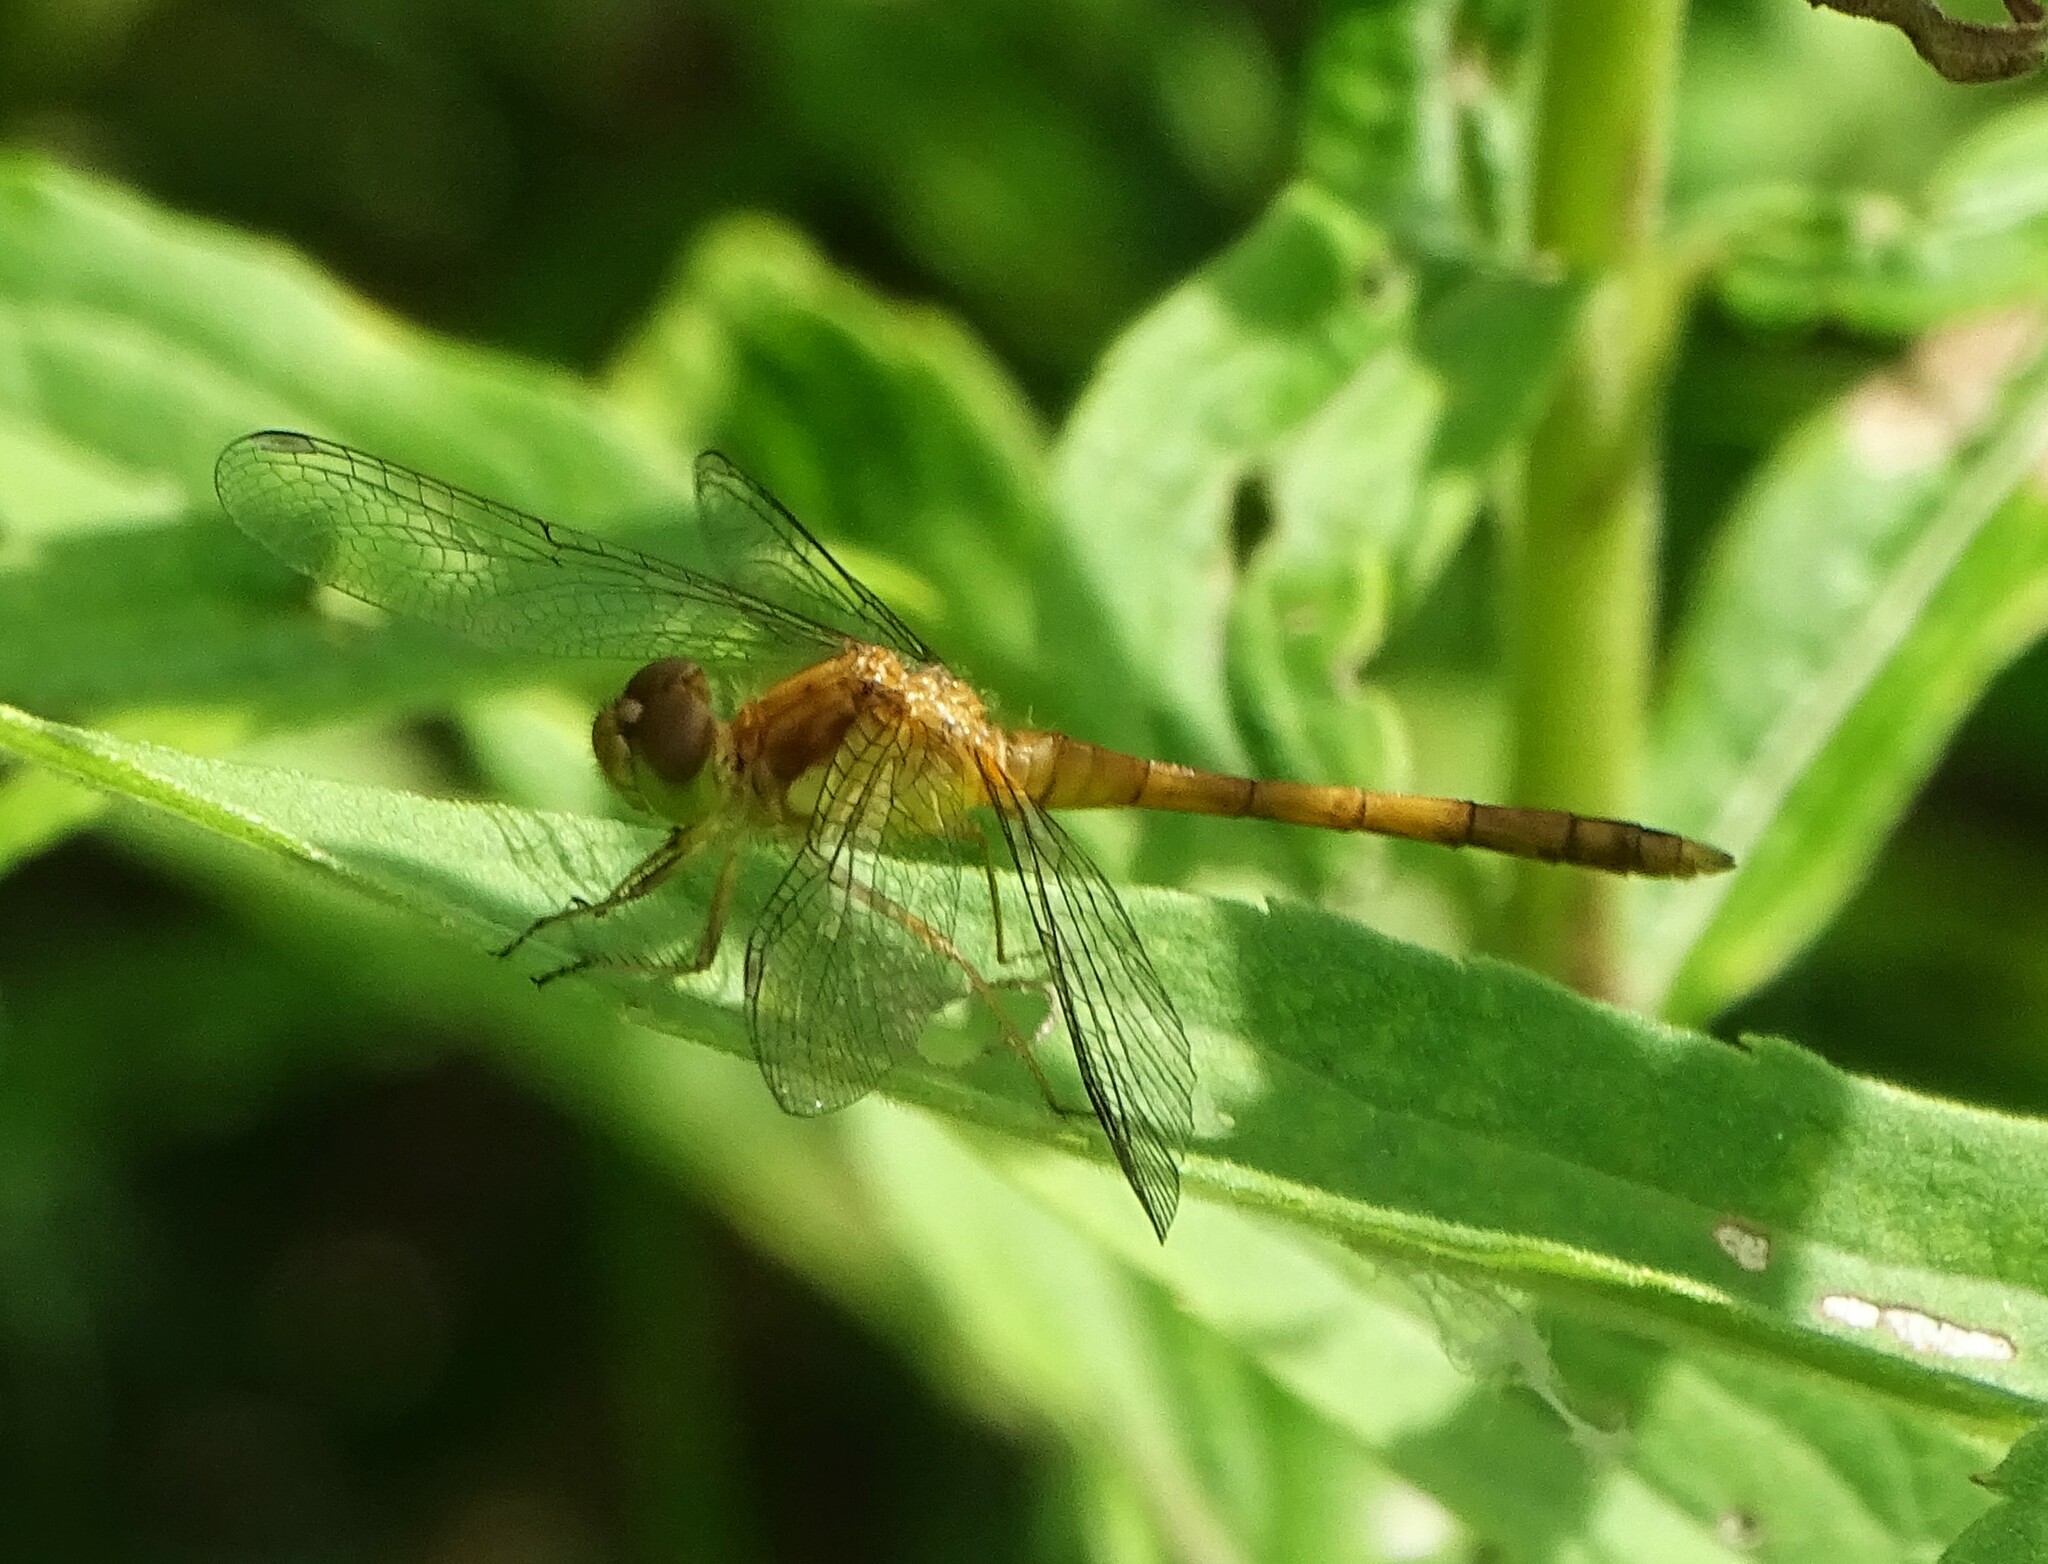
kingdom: Animalia
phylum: Arthropoda
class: Insecta
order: Odonata
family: Libellulidae
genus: Sympetrum
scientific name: Sympetrum vicinum
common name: Autumn meadowhawk
